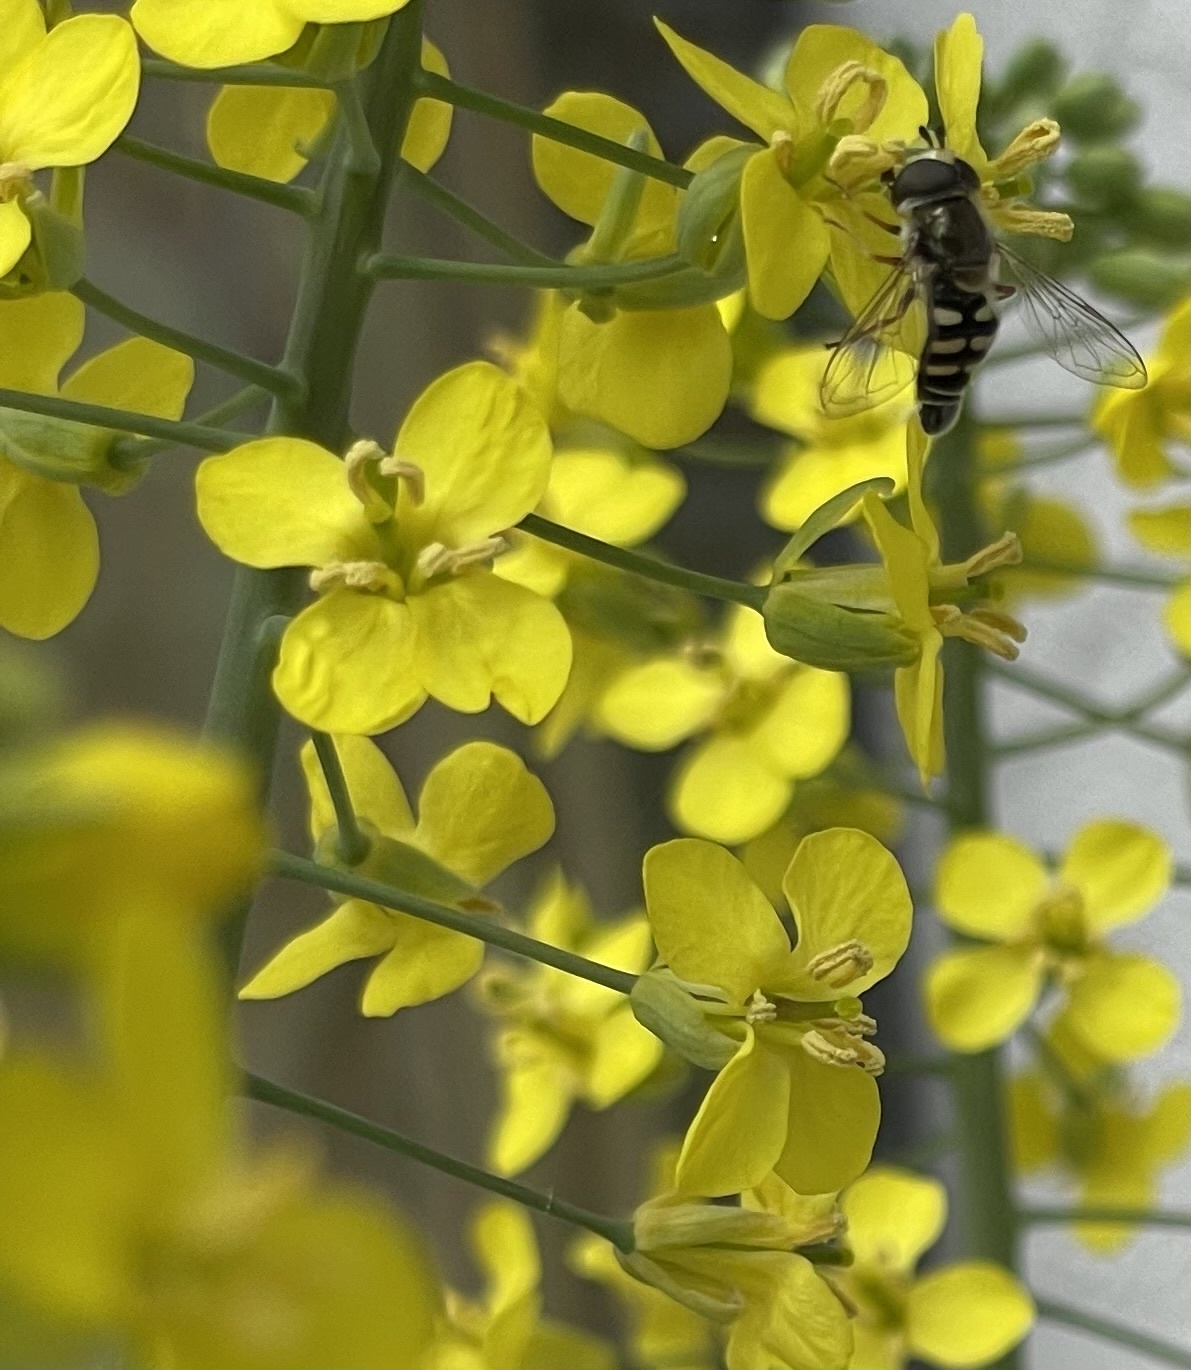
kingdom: Animalia
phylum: Arthropoda
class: Insecta
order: Diptera
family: Syrphidae
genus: Eupeodes
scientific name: Eupeodes volucris
